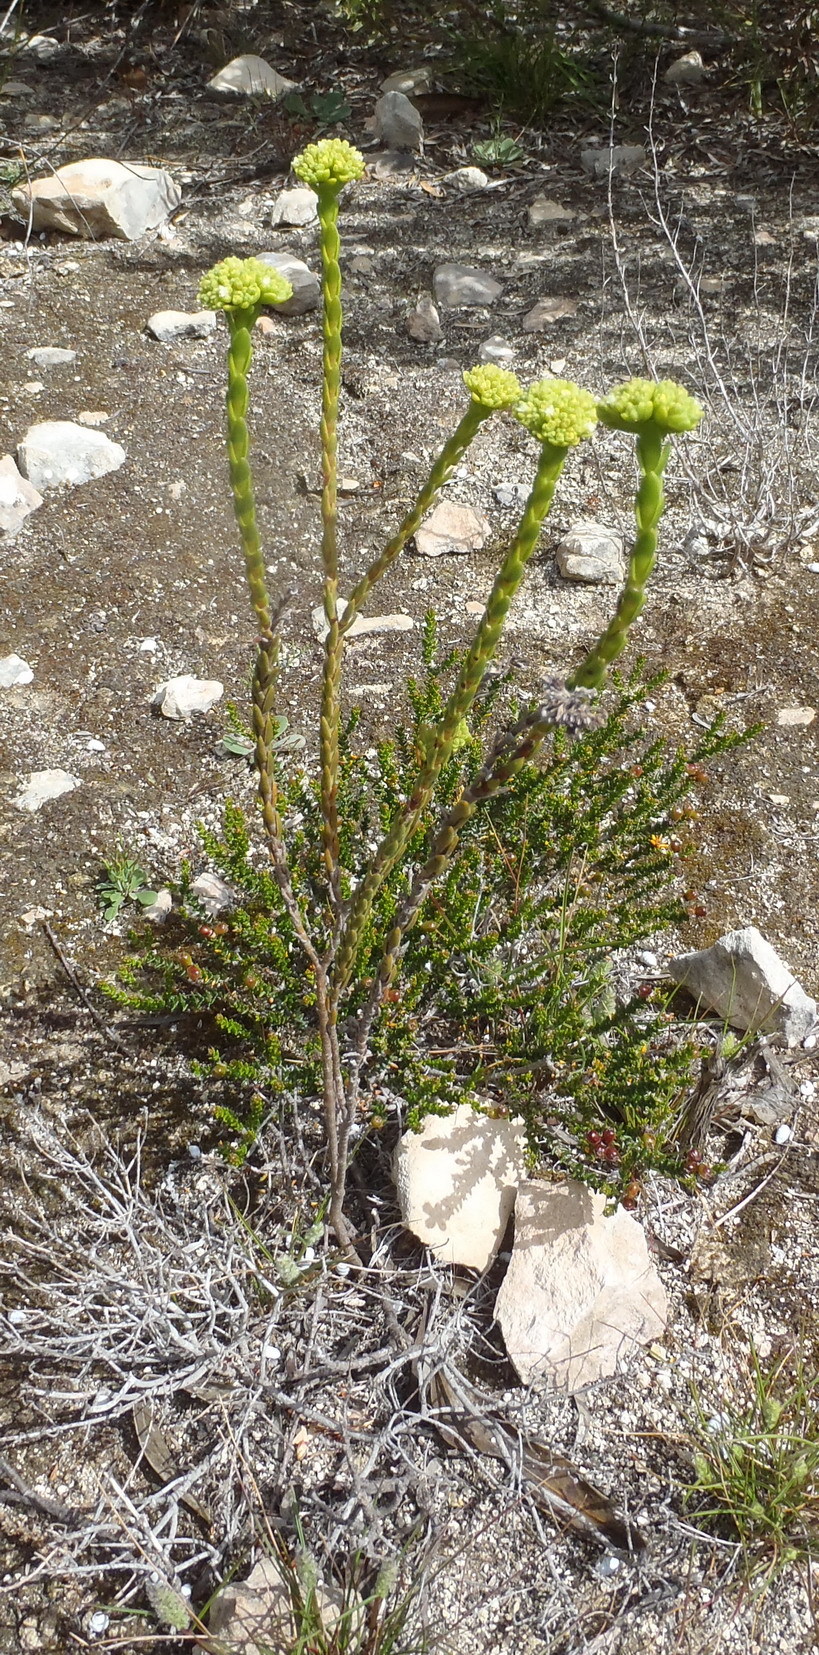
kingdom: Plantae
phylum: Tracheophyta
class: Magnoliopsida
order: Saxifragales
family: Crassulaceae
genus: Crassula
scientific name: Crassula subulata
